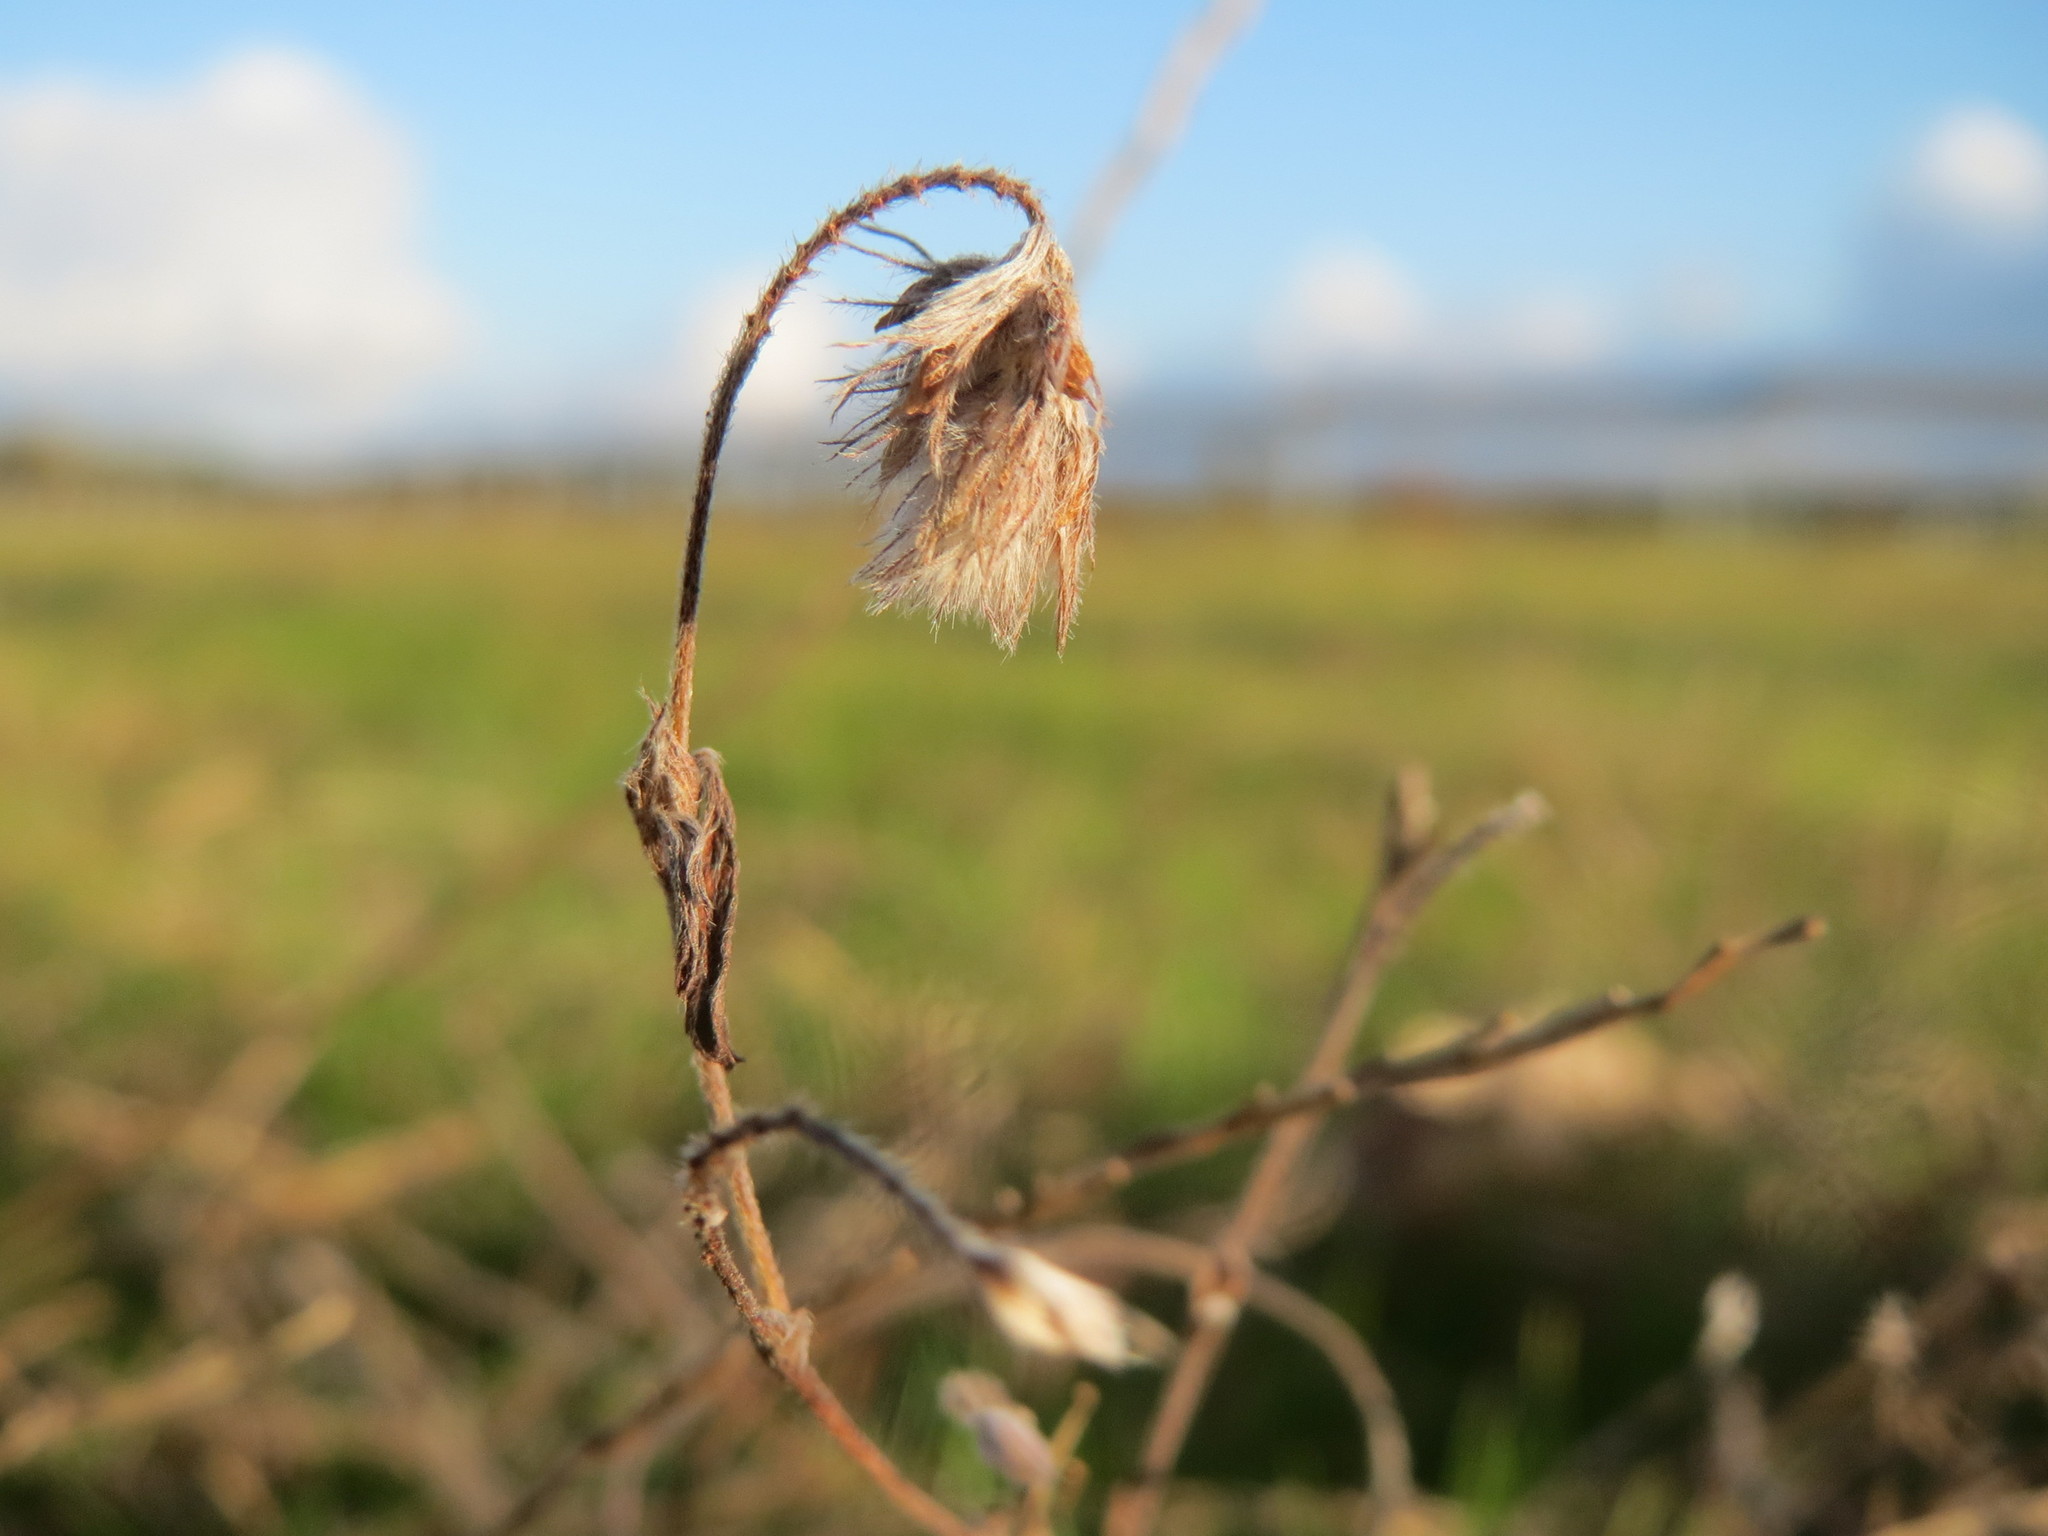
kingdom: Plantae
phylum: Tracheophyta
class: Magnoliopsida
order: Fabales
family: Fabaceae
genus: Trifolium
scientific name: Trifolium arvense
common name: Hare's-foot clover
